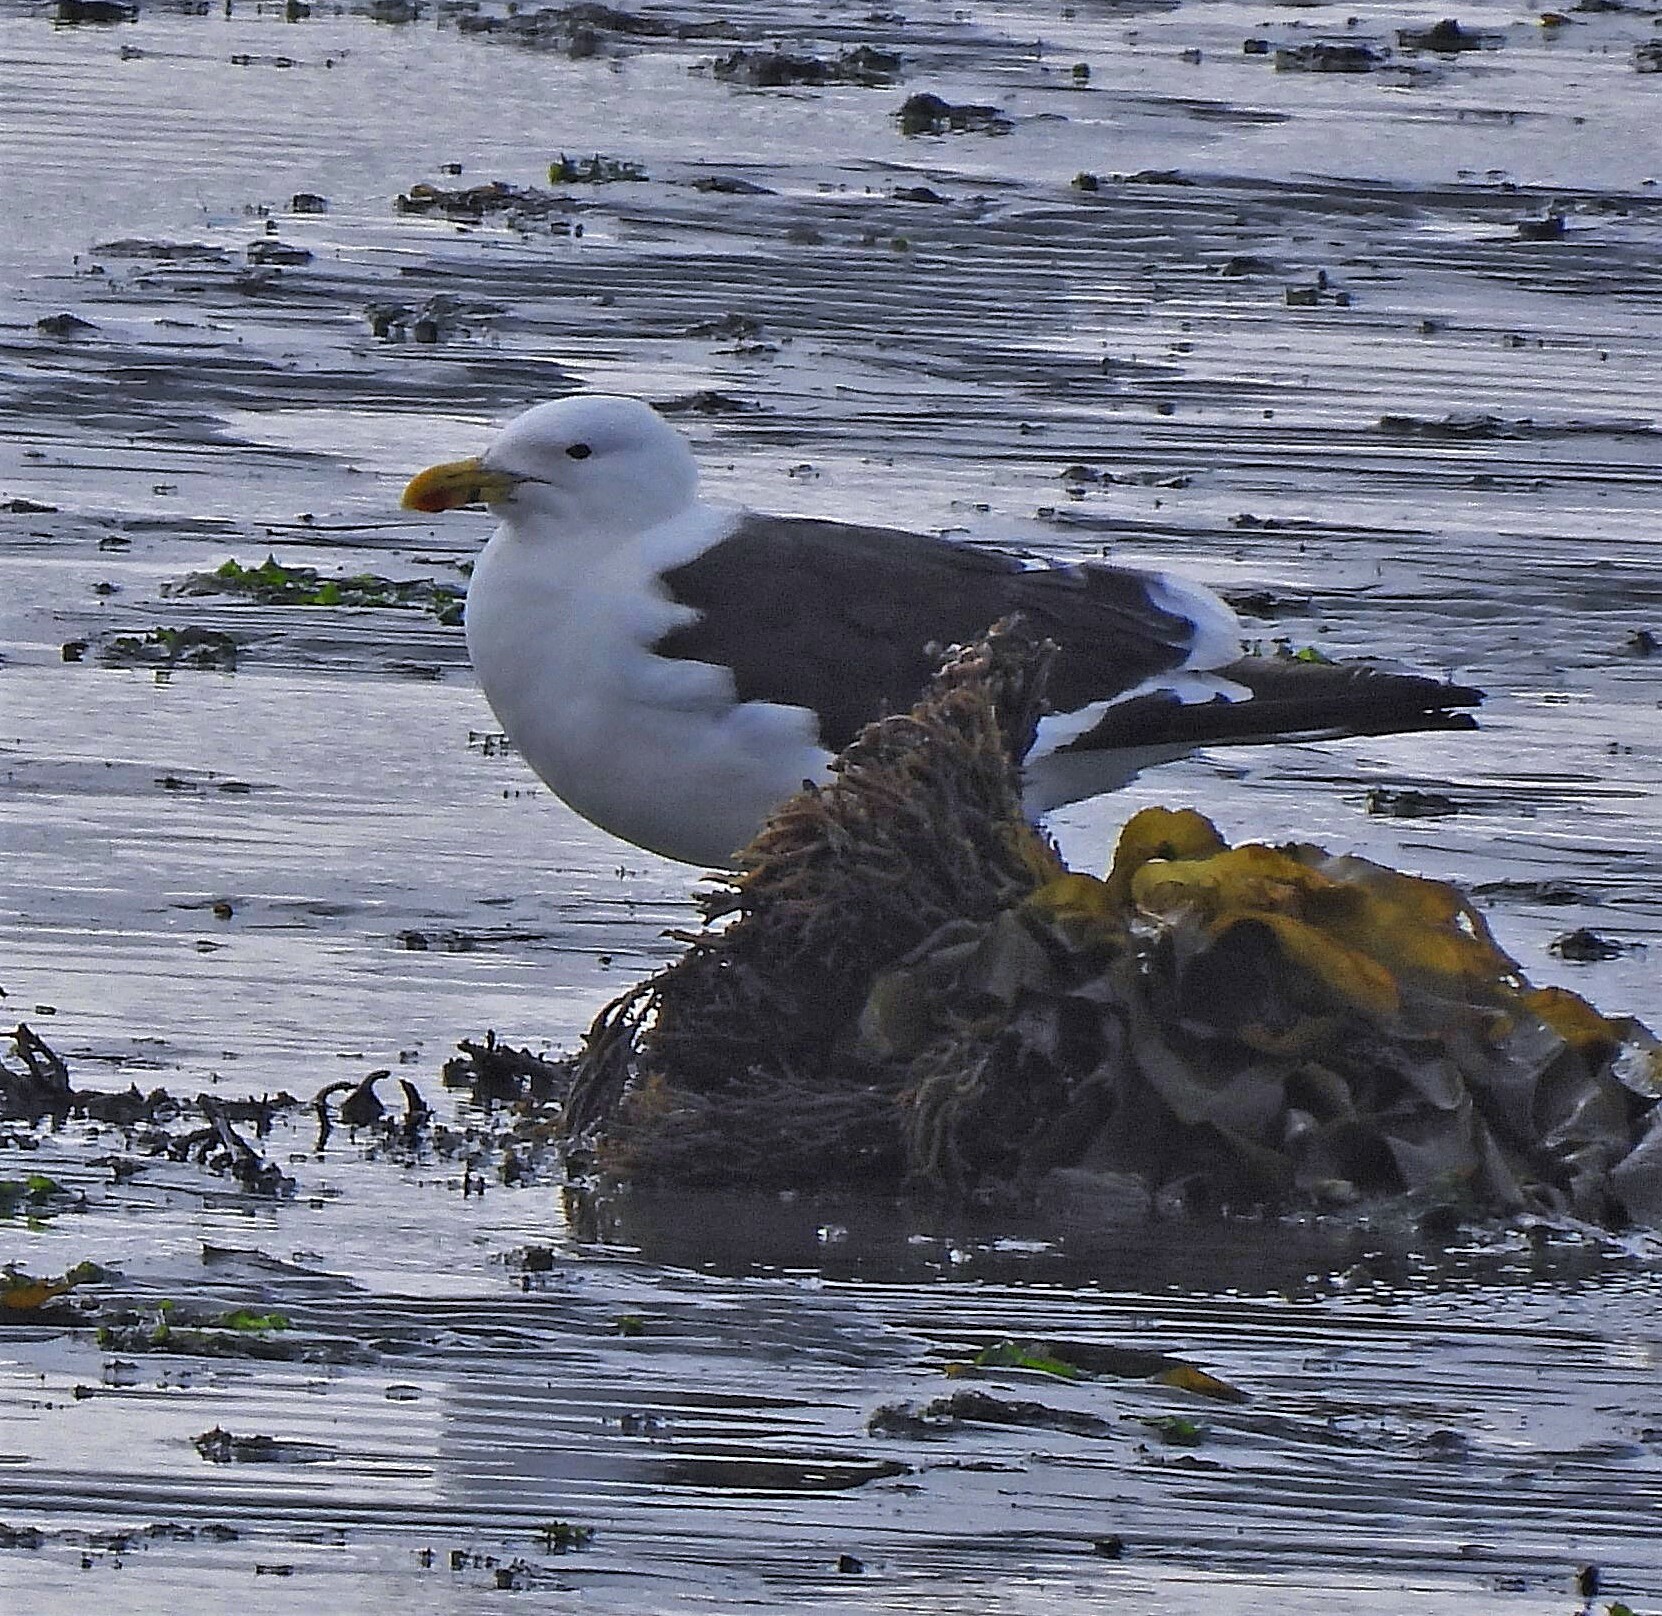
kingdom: Animalia
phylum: Chordata
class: Aves
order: Charadriiformes
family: Laridae
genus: Larus
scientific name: Larus dominicanus
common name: Kelp gull
